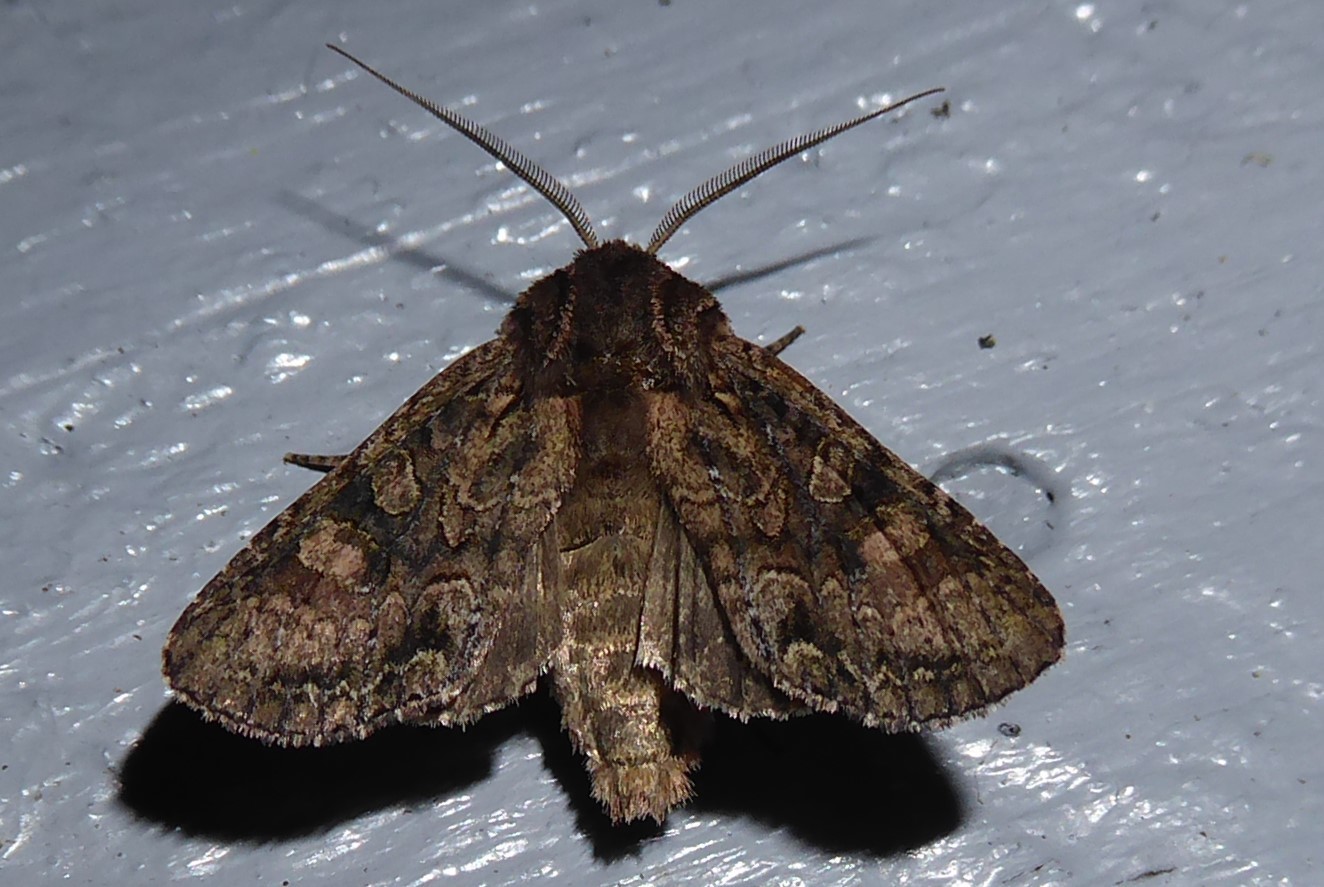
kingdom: Animalia
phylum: Arthropoda
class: Insecta
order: Lepidoptera
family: Noctuidae
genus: Ichneutica
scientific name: Ichneutica mutans
